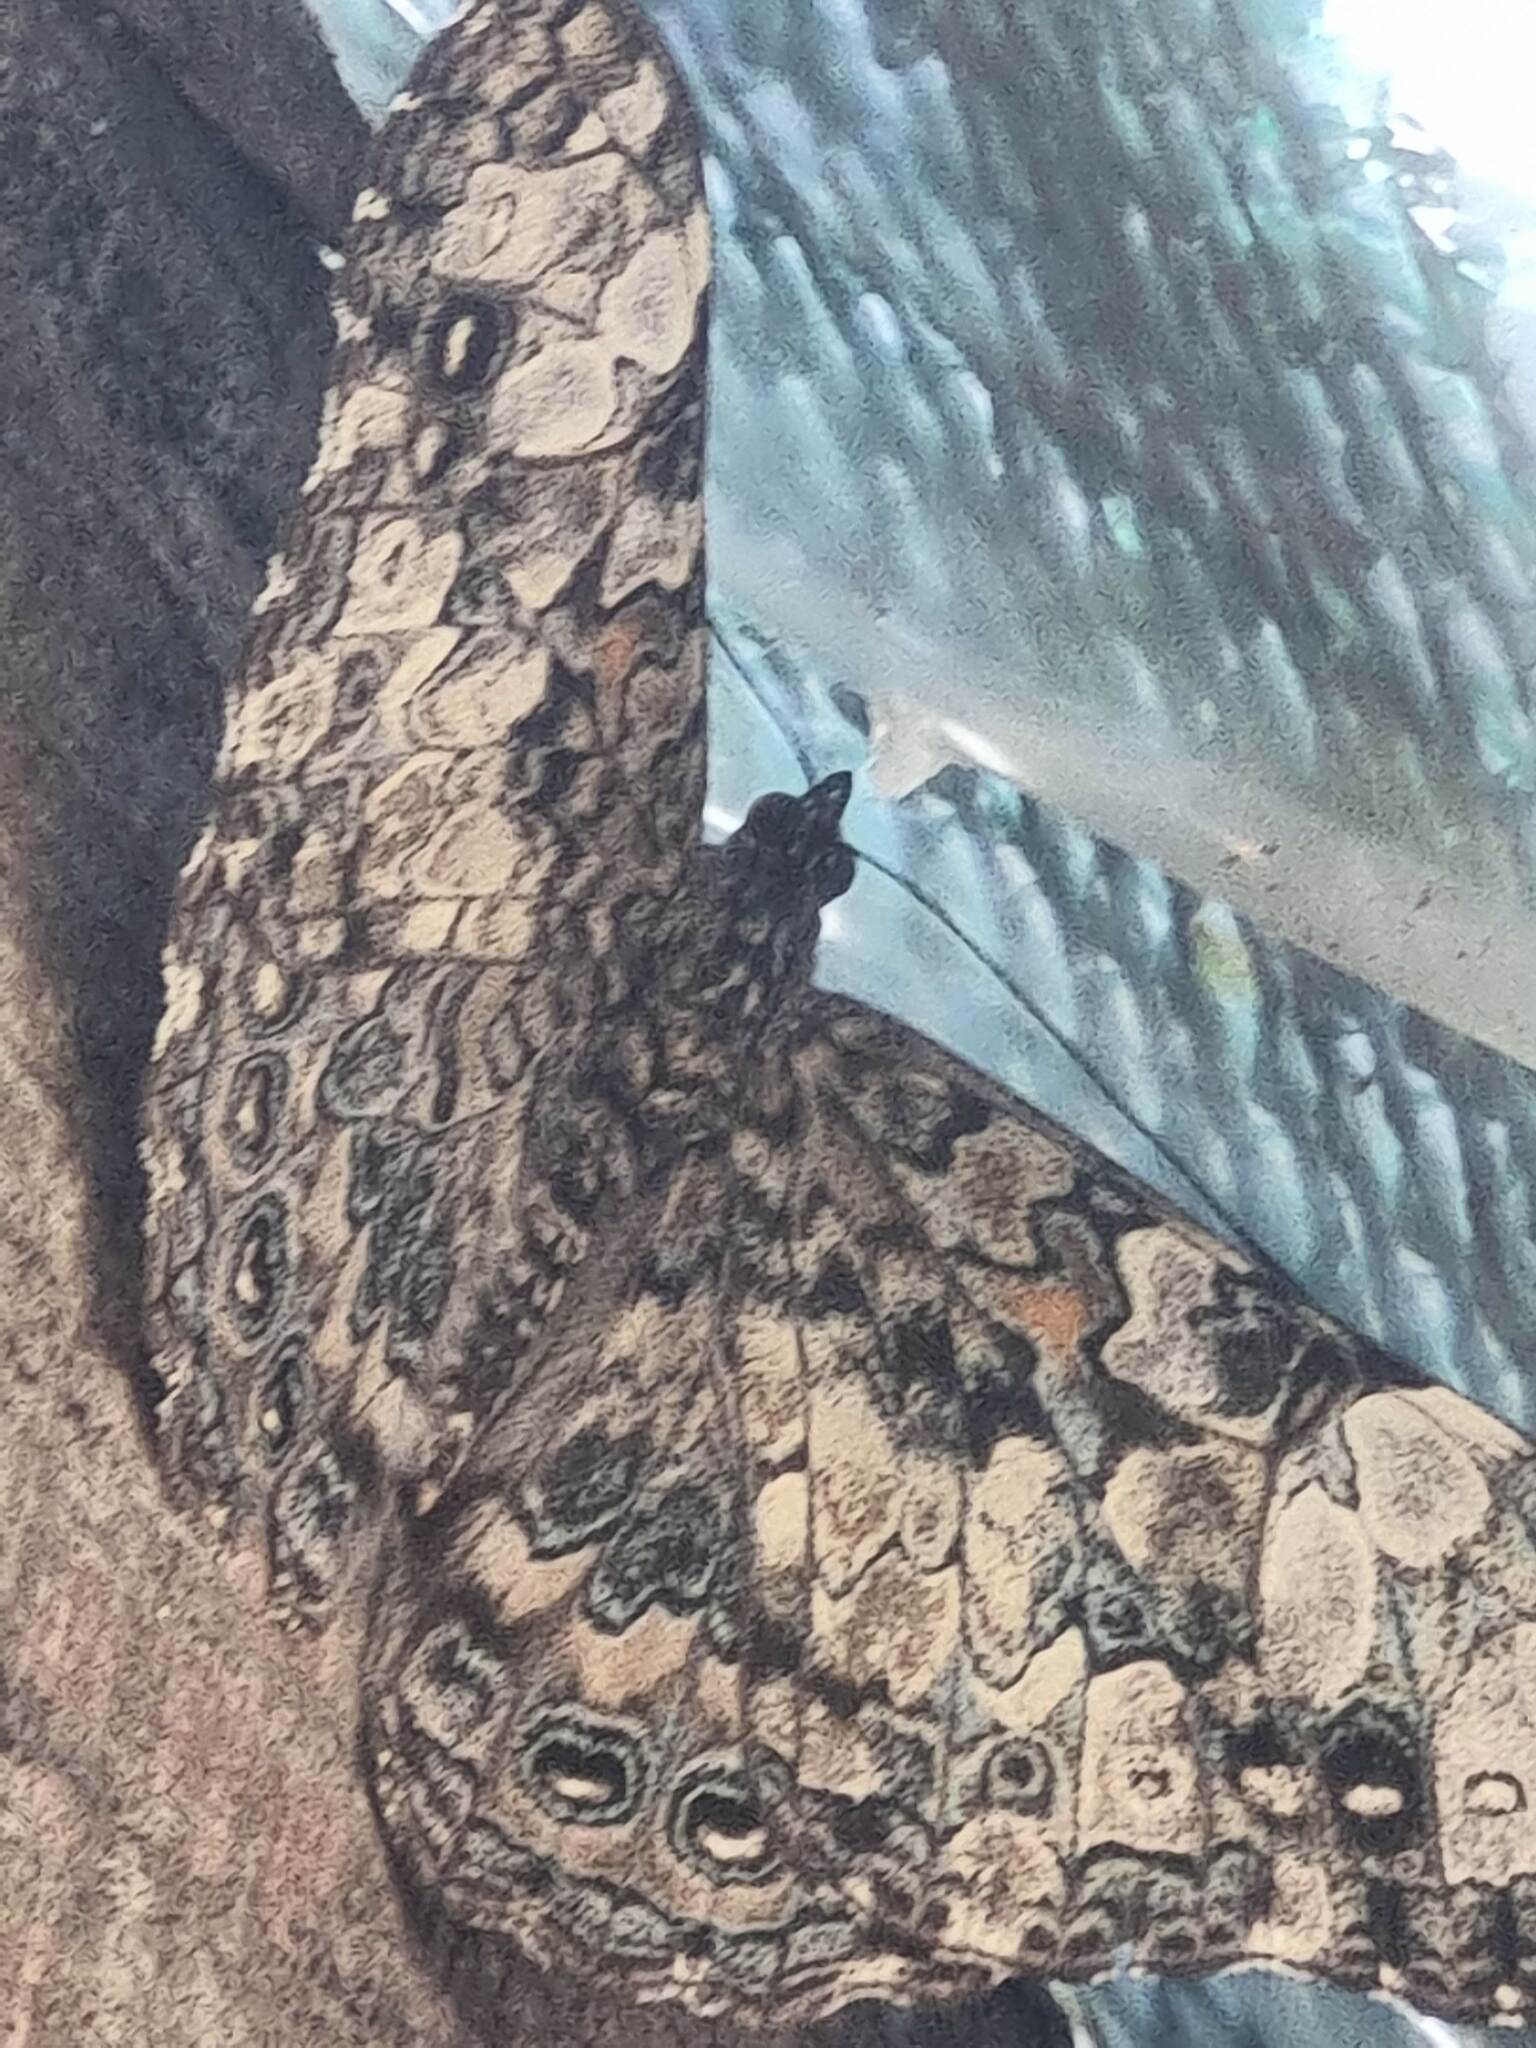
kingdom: Animalia
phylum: Arthropoda
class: Insecta
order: Lepidoptera
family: Nymphalidae
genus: Hamadryas
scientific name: Hamadryas epinome
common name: Epinome cracker
